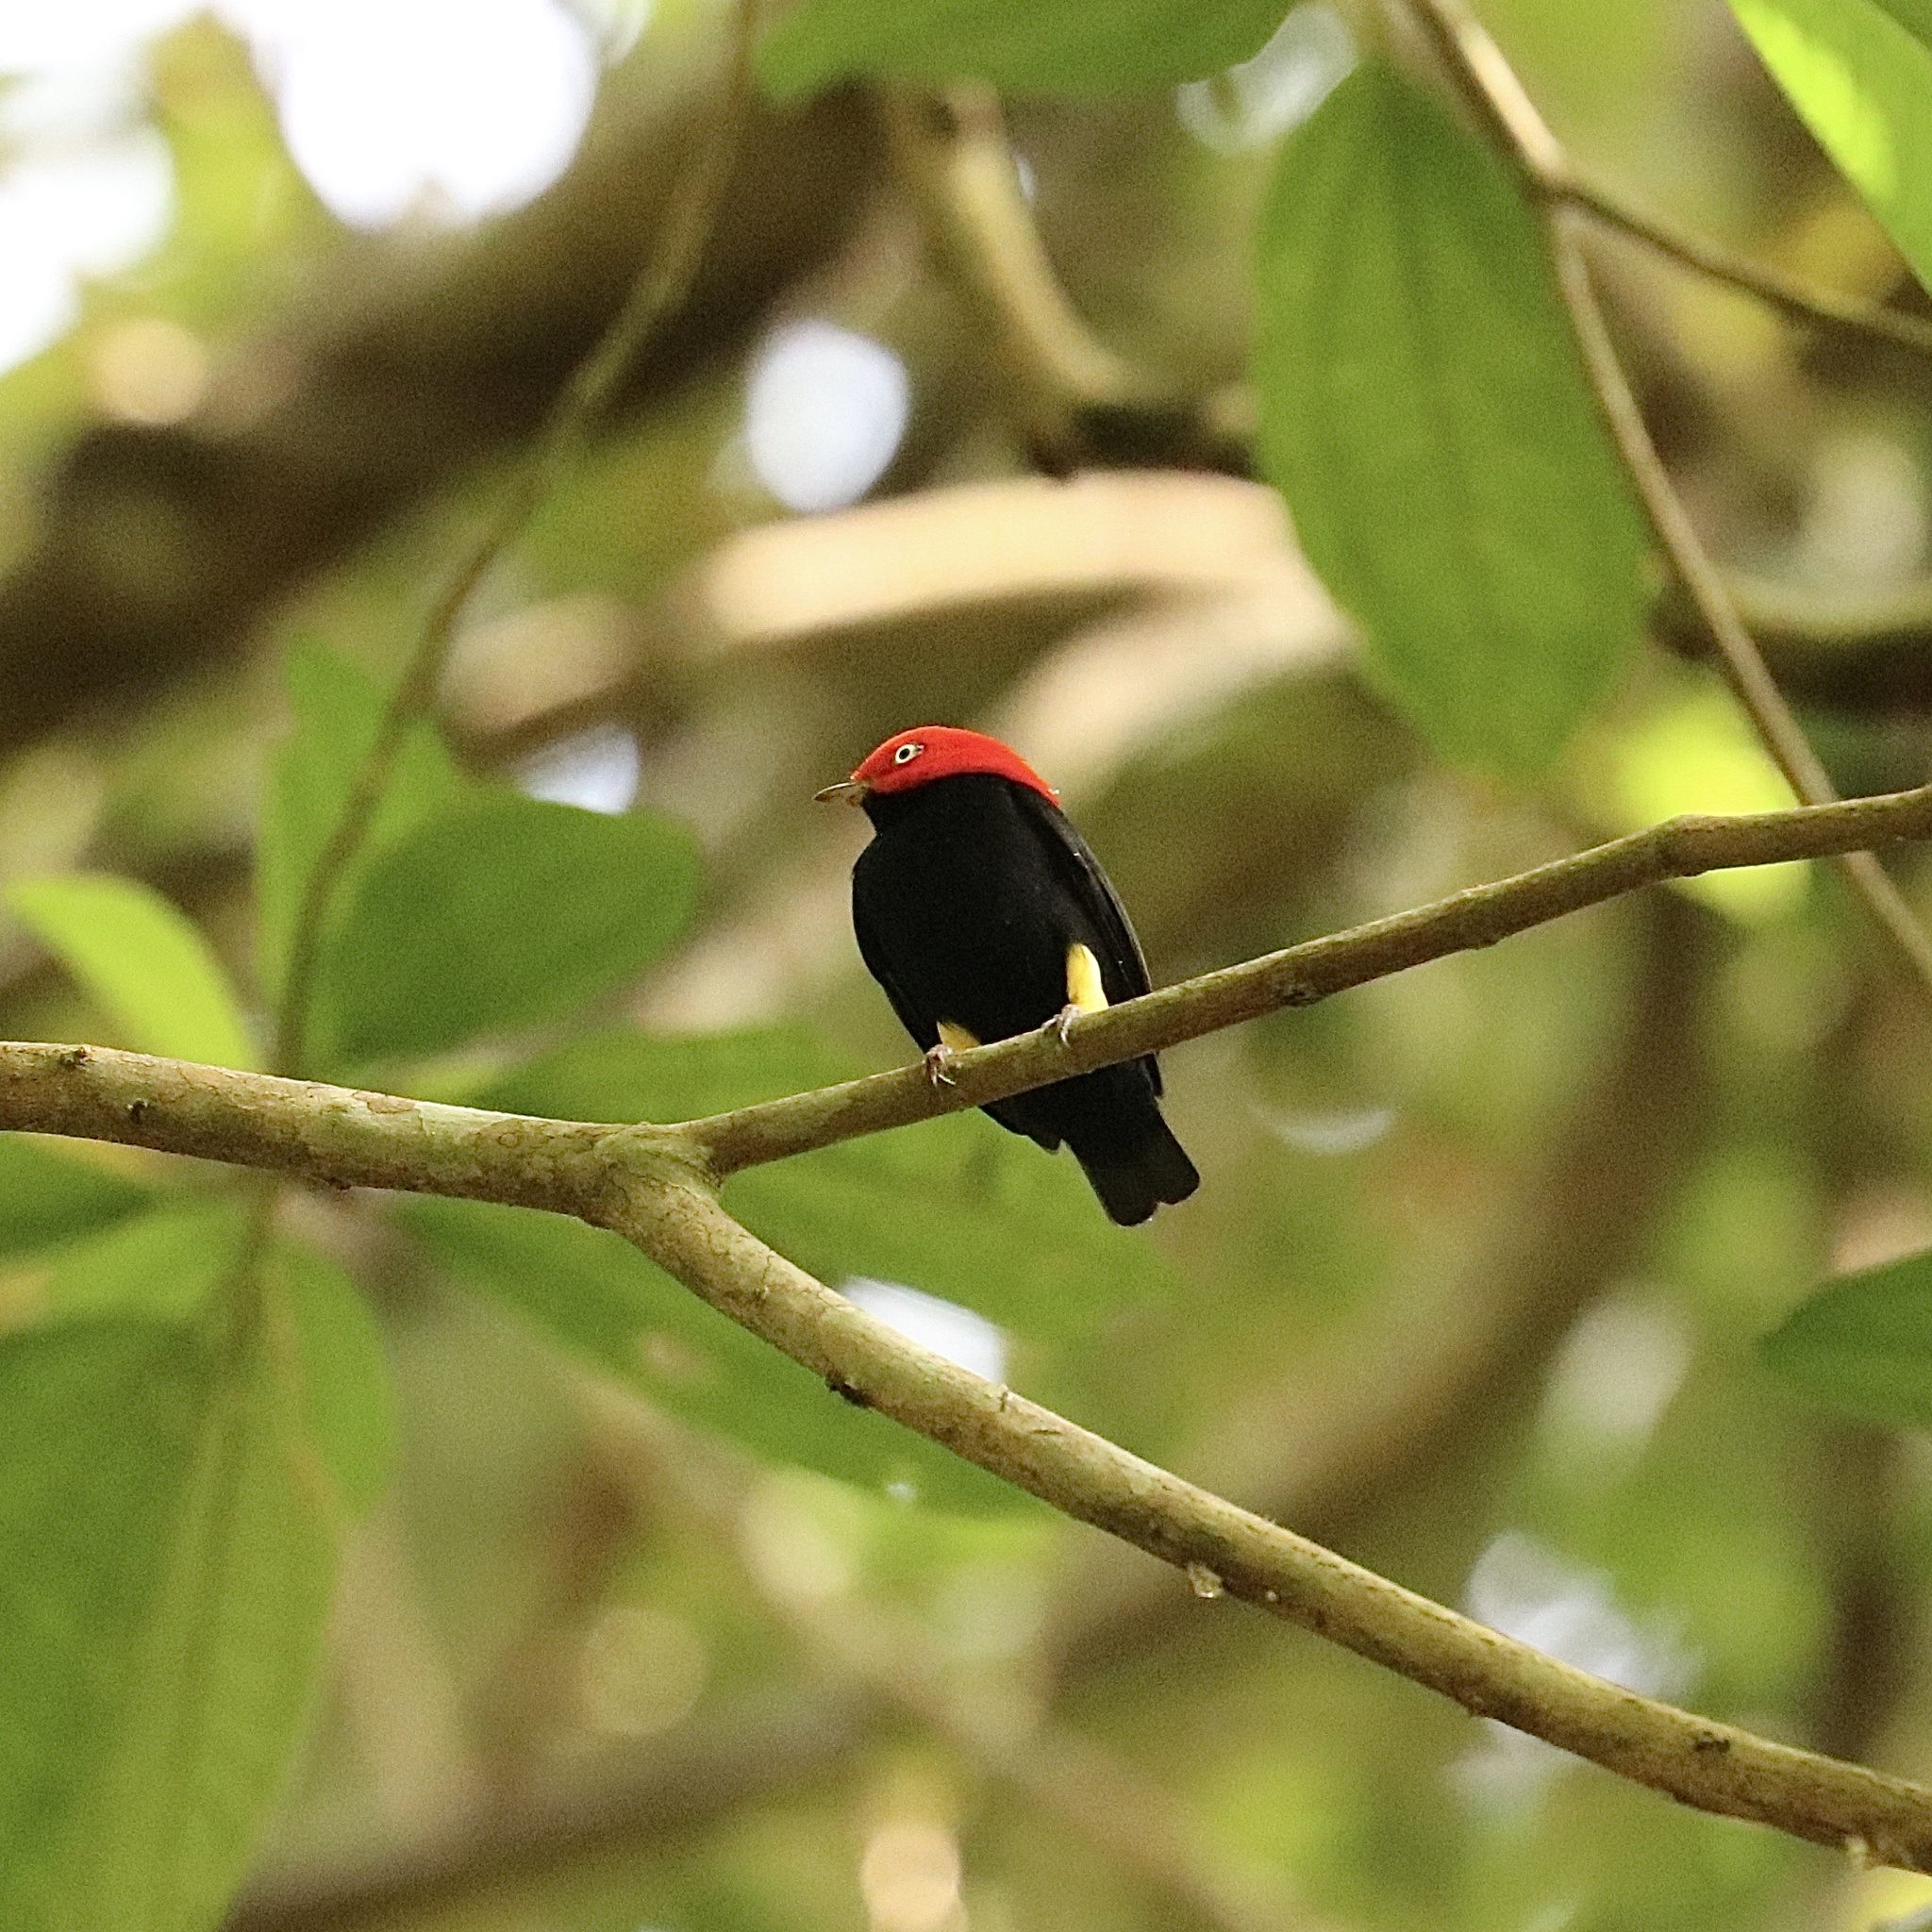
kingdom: Animalia
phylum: Chordata
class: Aves
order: Passeriformes
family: Pipridae
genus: Pipra
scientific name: Pipra mentalis
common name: Red-capped manakin
